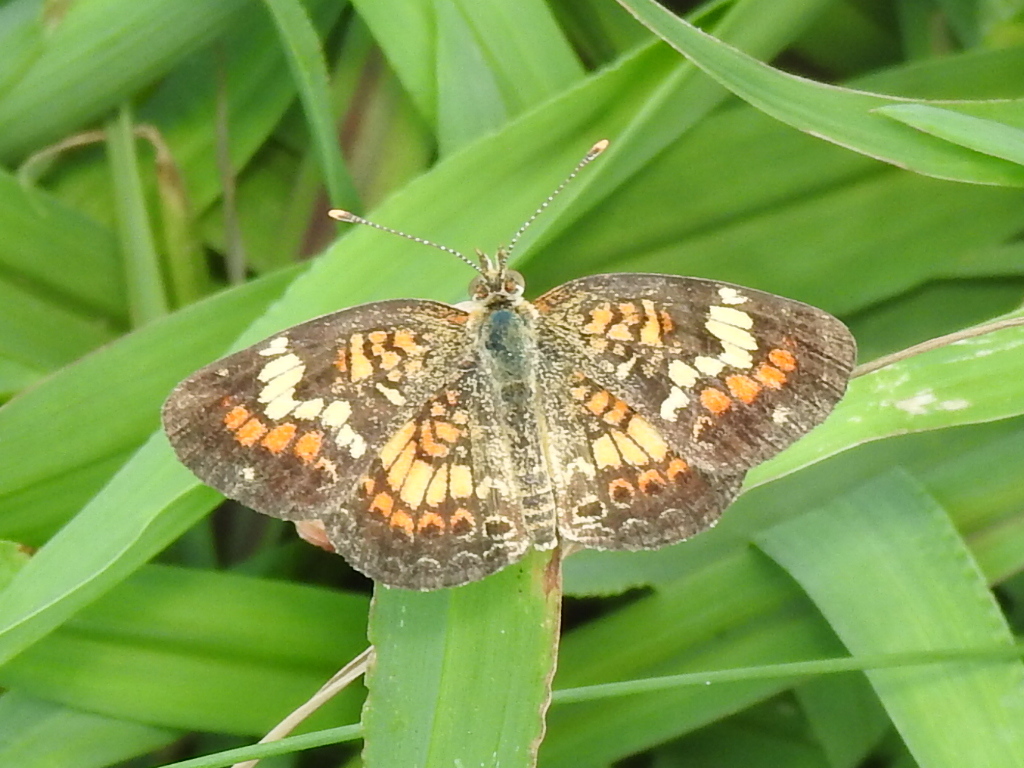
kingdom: Animalia
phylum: Arthropoda
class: Insecta
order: Lepidoptera
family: Nymphalidae
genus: Phyciodes
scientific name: Phyciodes phaon
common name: Phaon crescent
